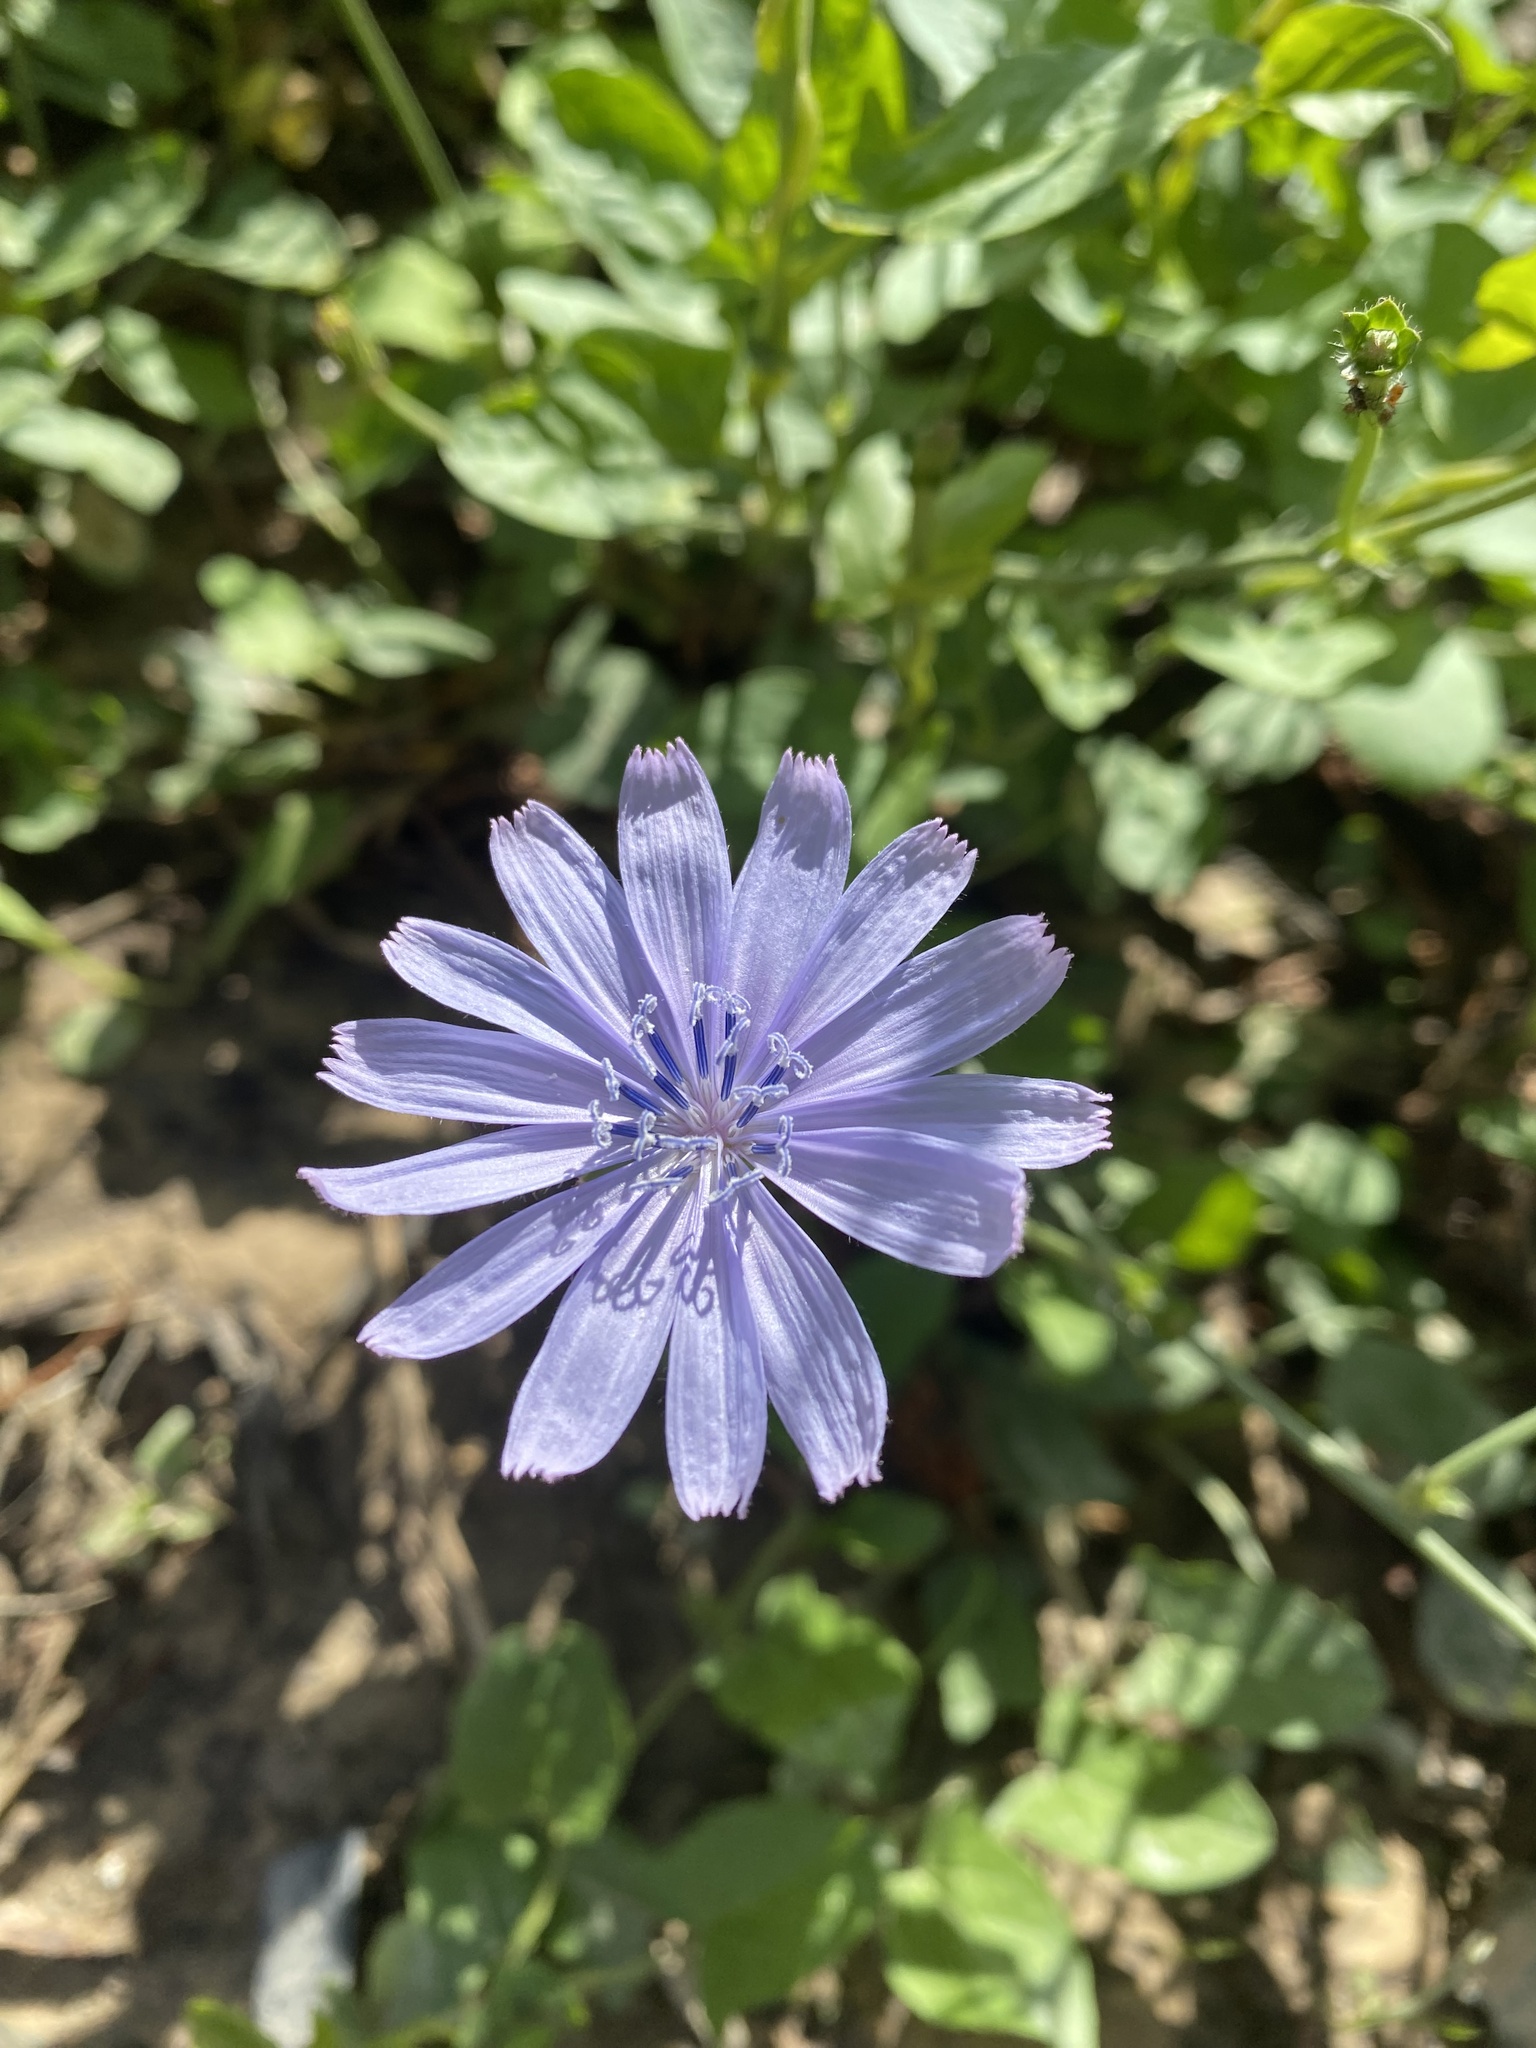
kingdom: Plantae
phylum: Tracheophyta
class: Magnoliopsida
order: Asterales
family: Asteraceae
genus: Cichorium
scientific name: Cichorium intybus
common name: Chicory
